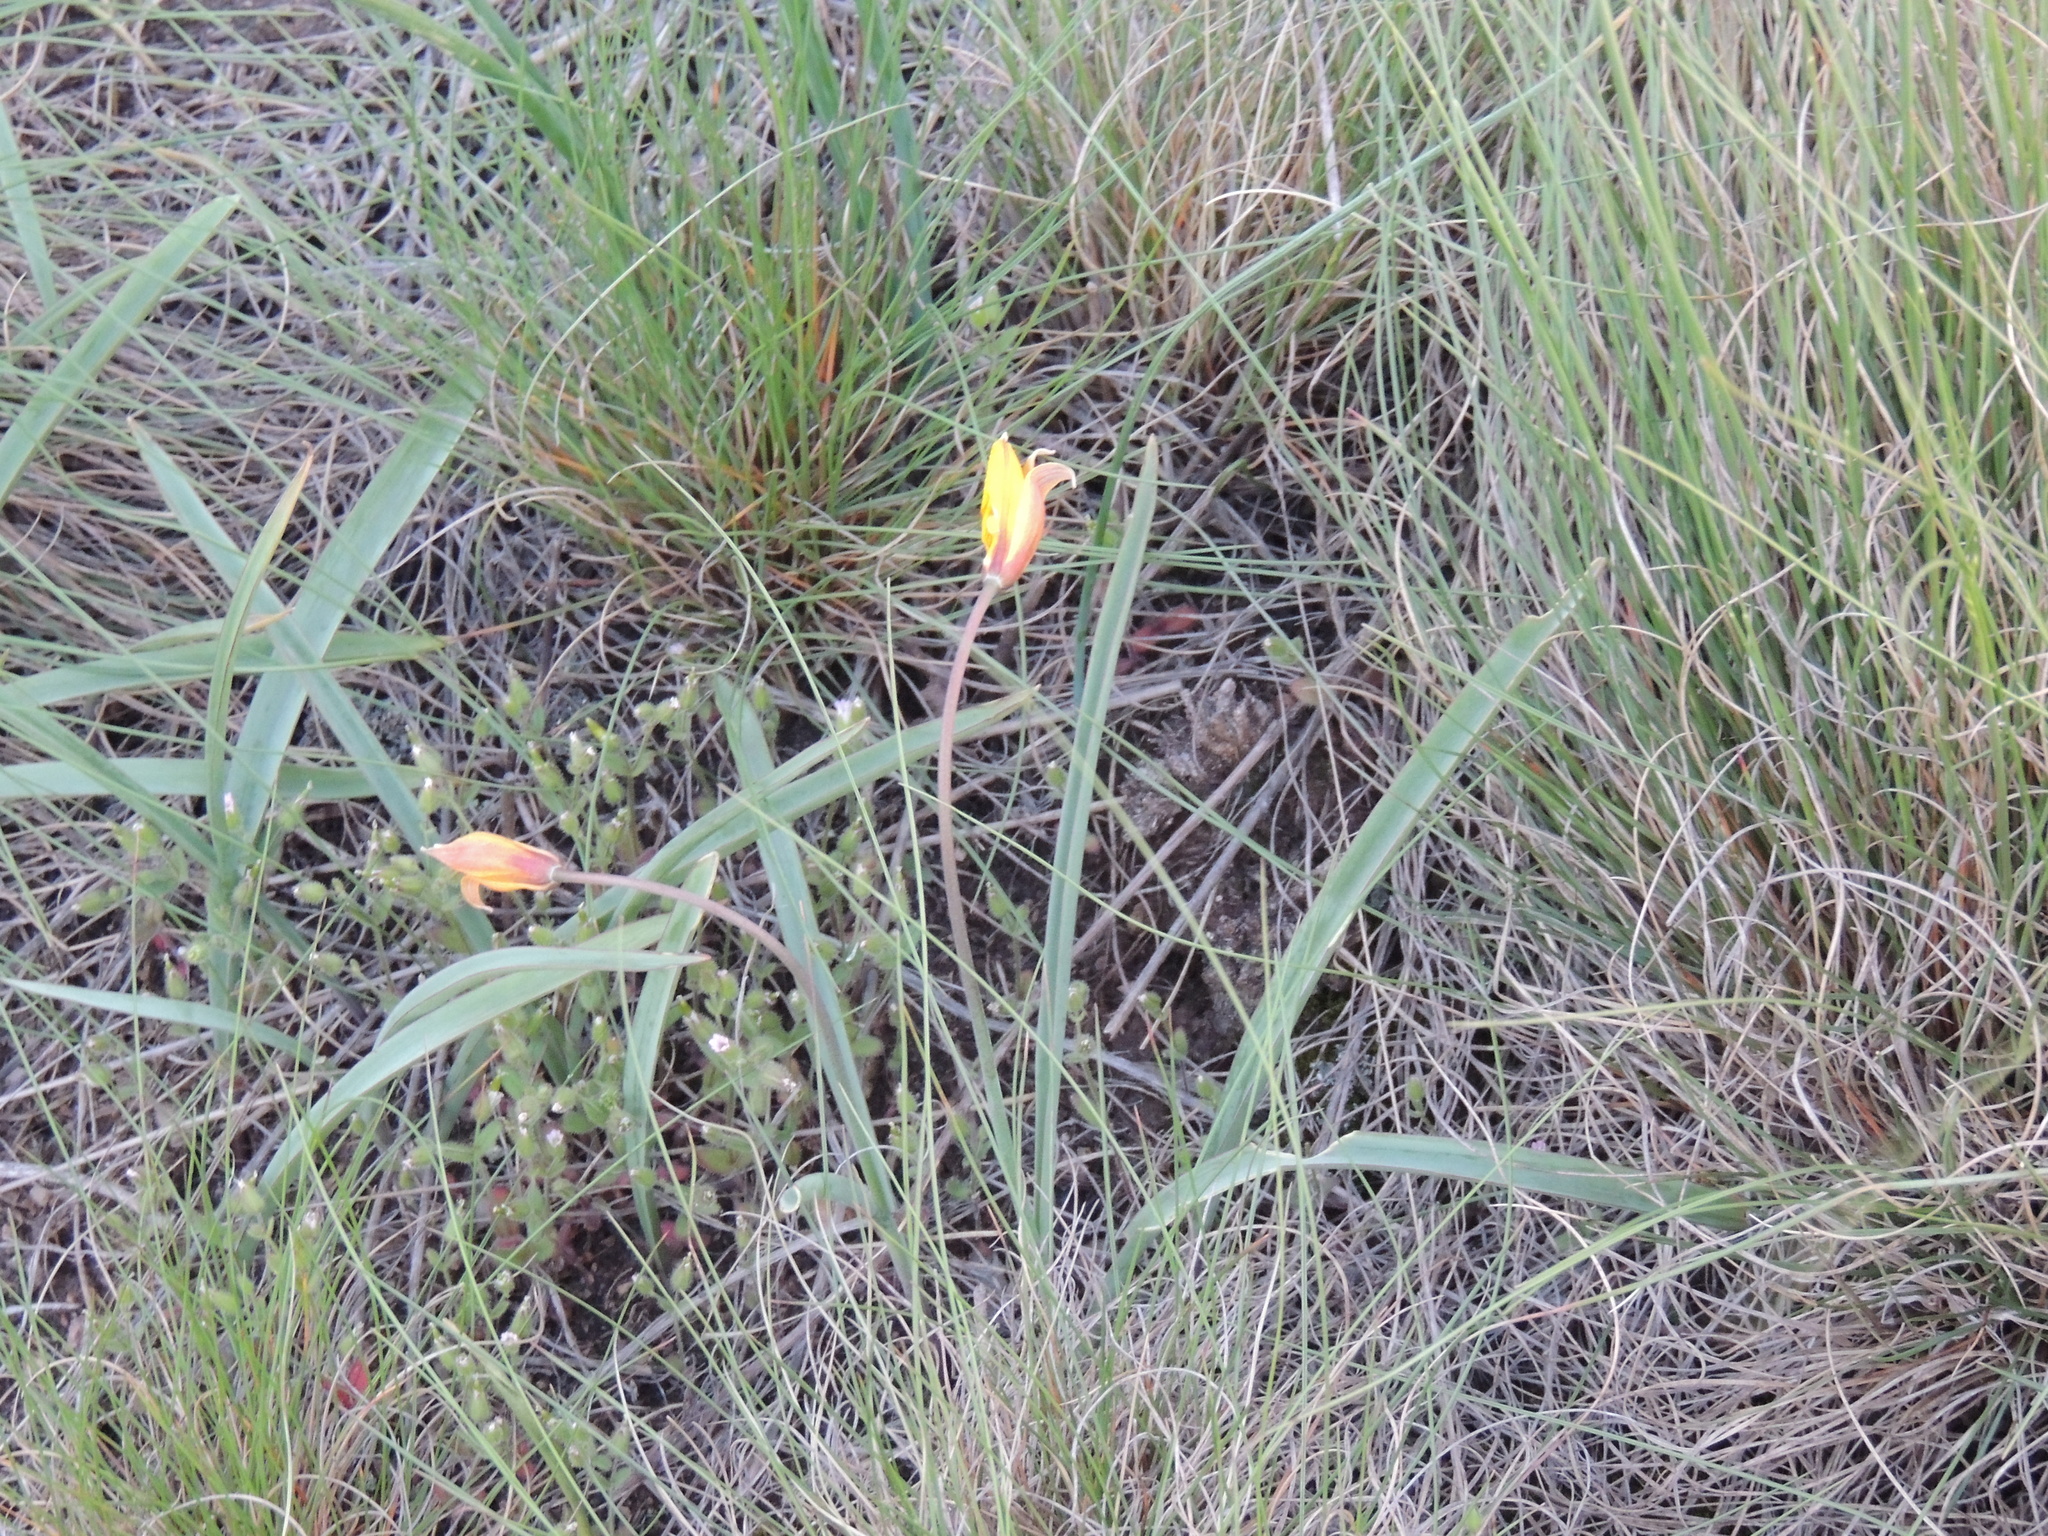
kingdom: Plantae
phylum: Tracheophyta
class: Liliopsida
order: Liliales
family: Liliaceae
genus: Tulipa
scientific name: Tulipa sylvestris
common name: Wild tulip
